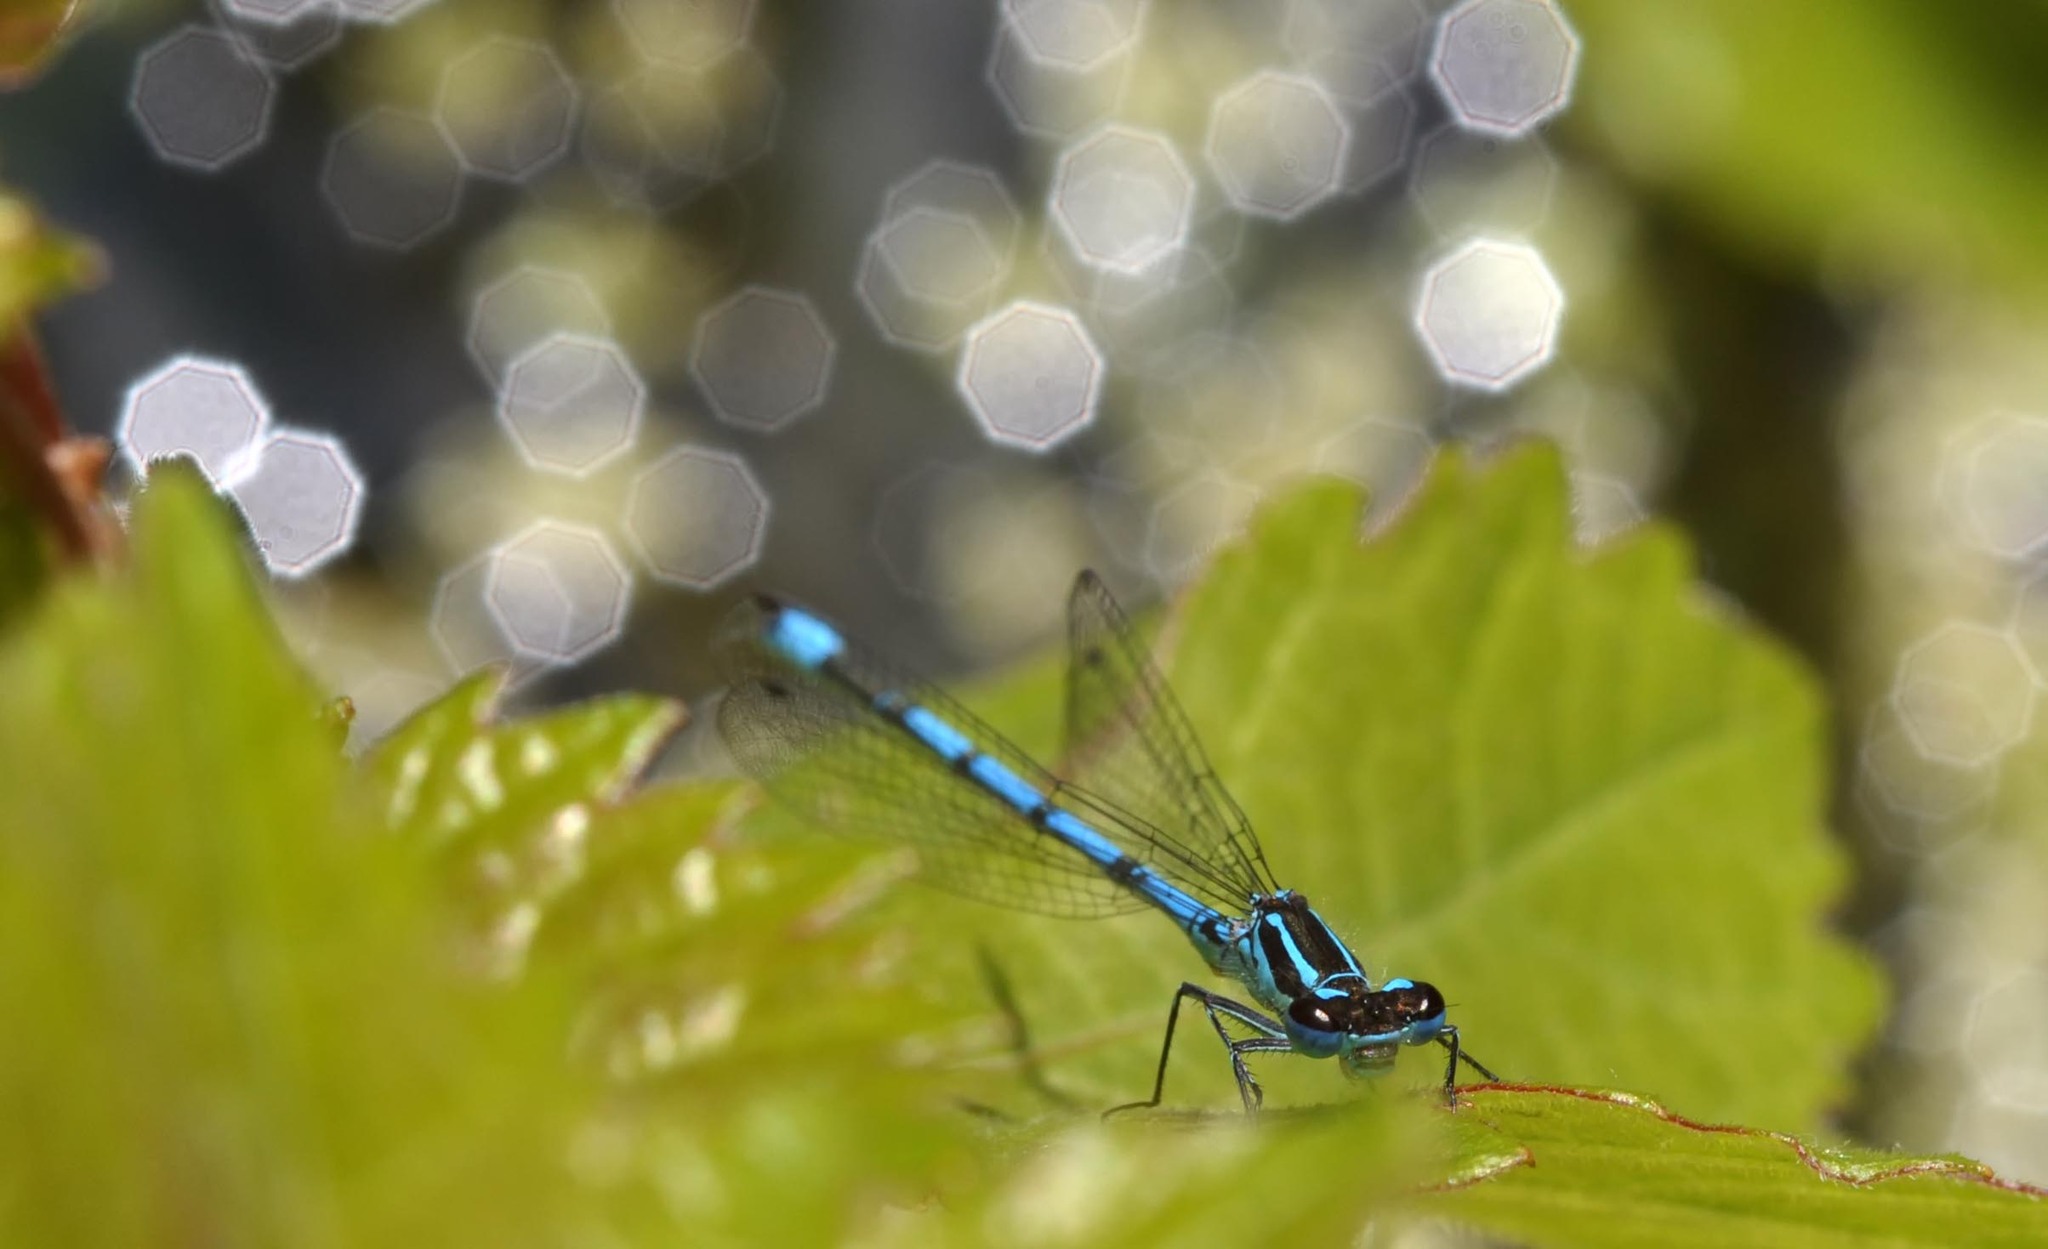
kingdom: Animalia
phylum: Arthropoda
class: Insecta
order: Odonata
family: Coenagrionidae
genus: Coenagrion
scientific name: Coenagrion puella
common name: Azure damselfly
